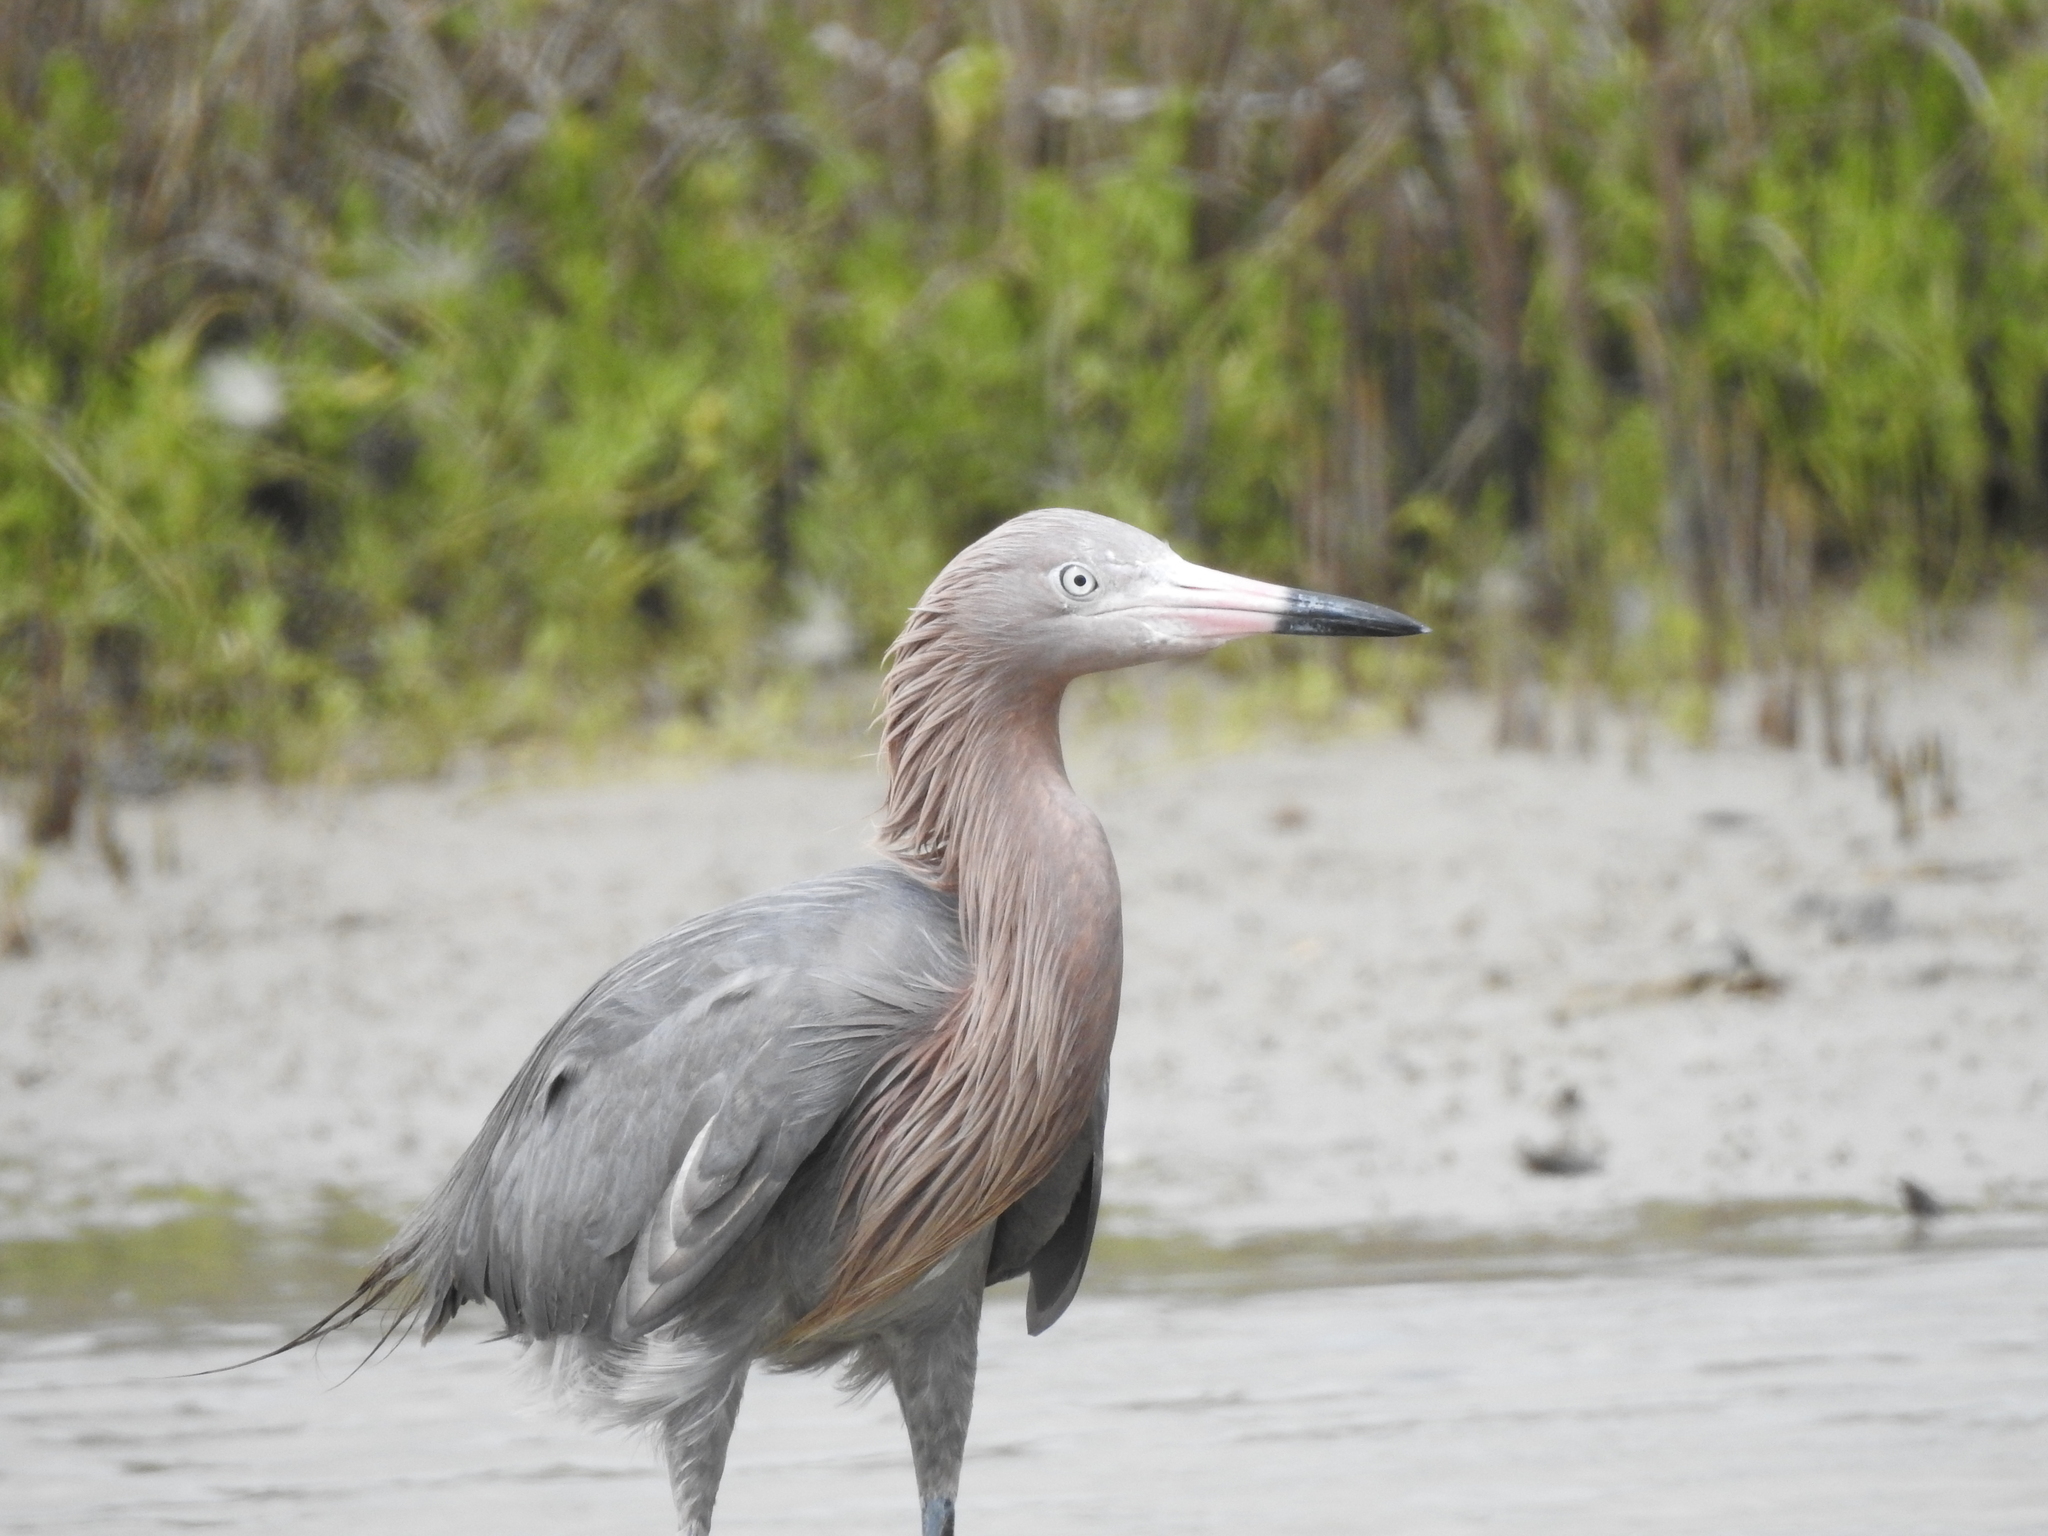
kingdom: Animalia
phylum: Chordata
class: Aves
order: Pelecaniformes
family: Ardeidae
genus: Egretta
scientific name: Egretta rufescens
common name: Reddish egret
